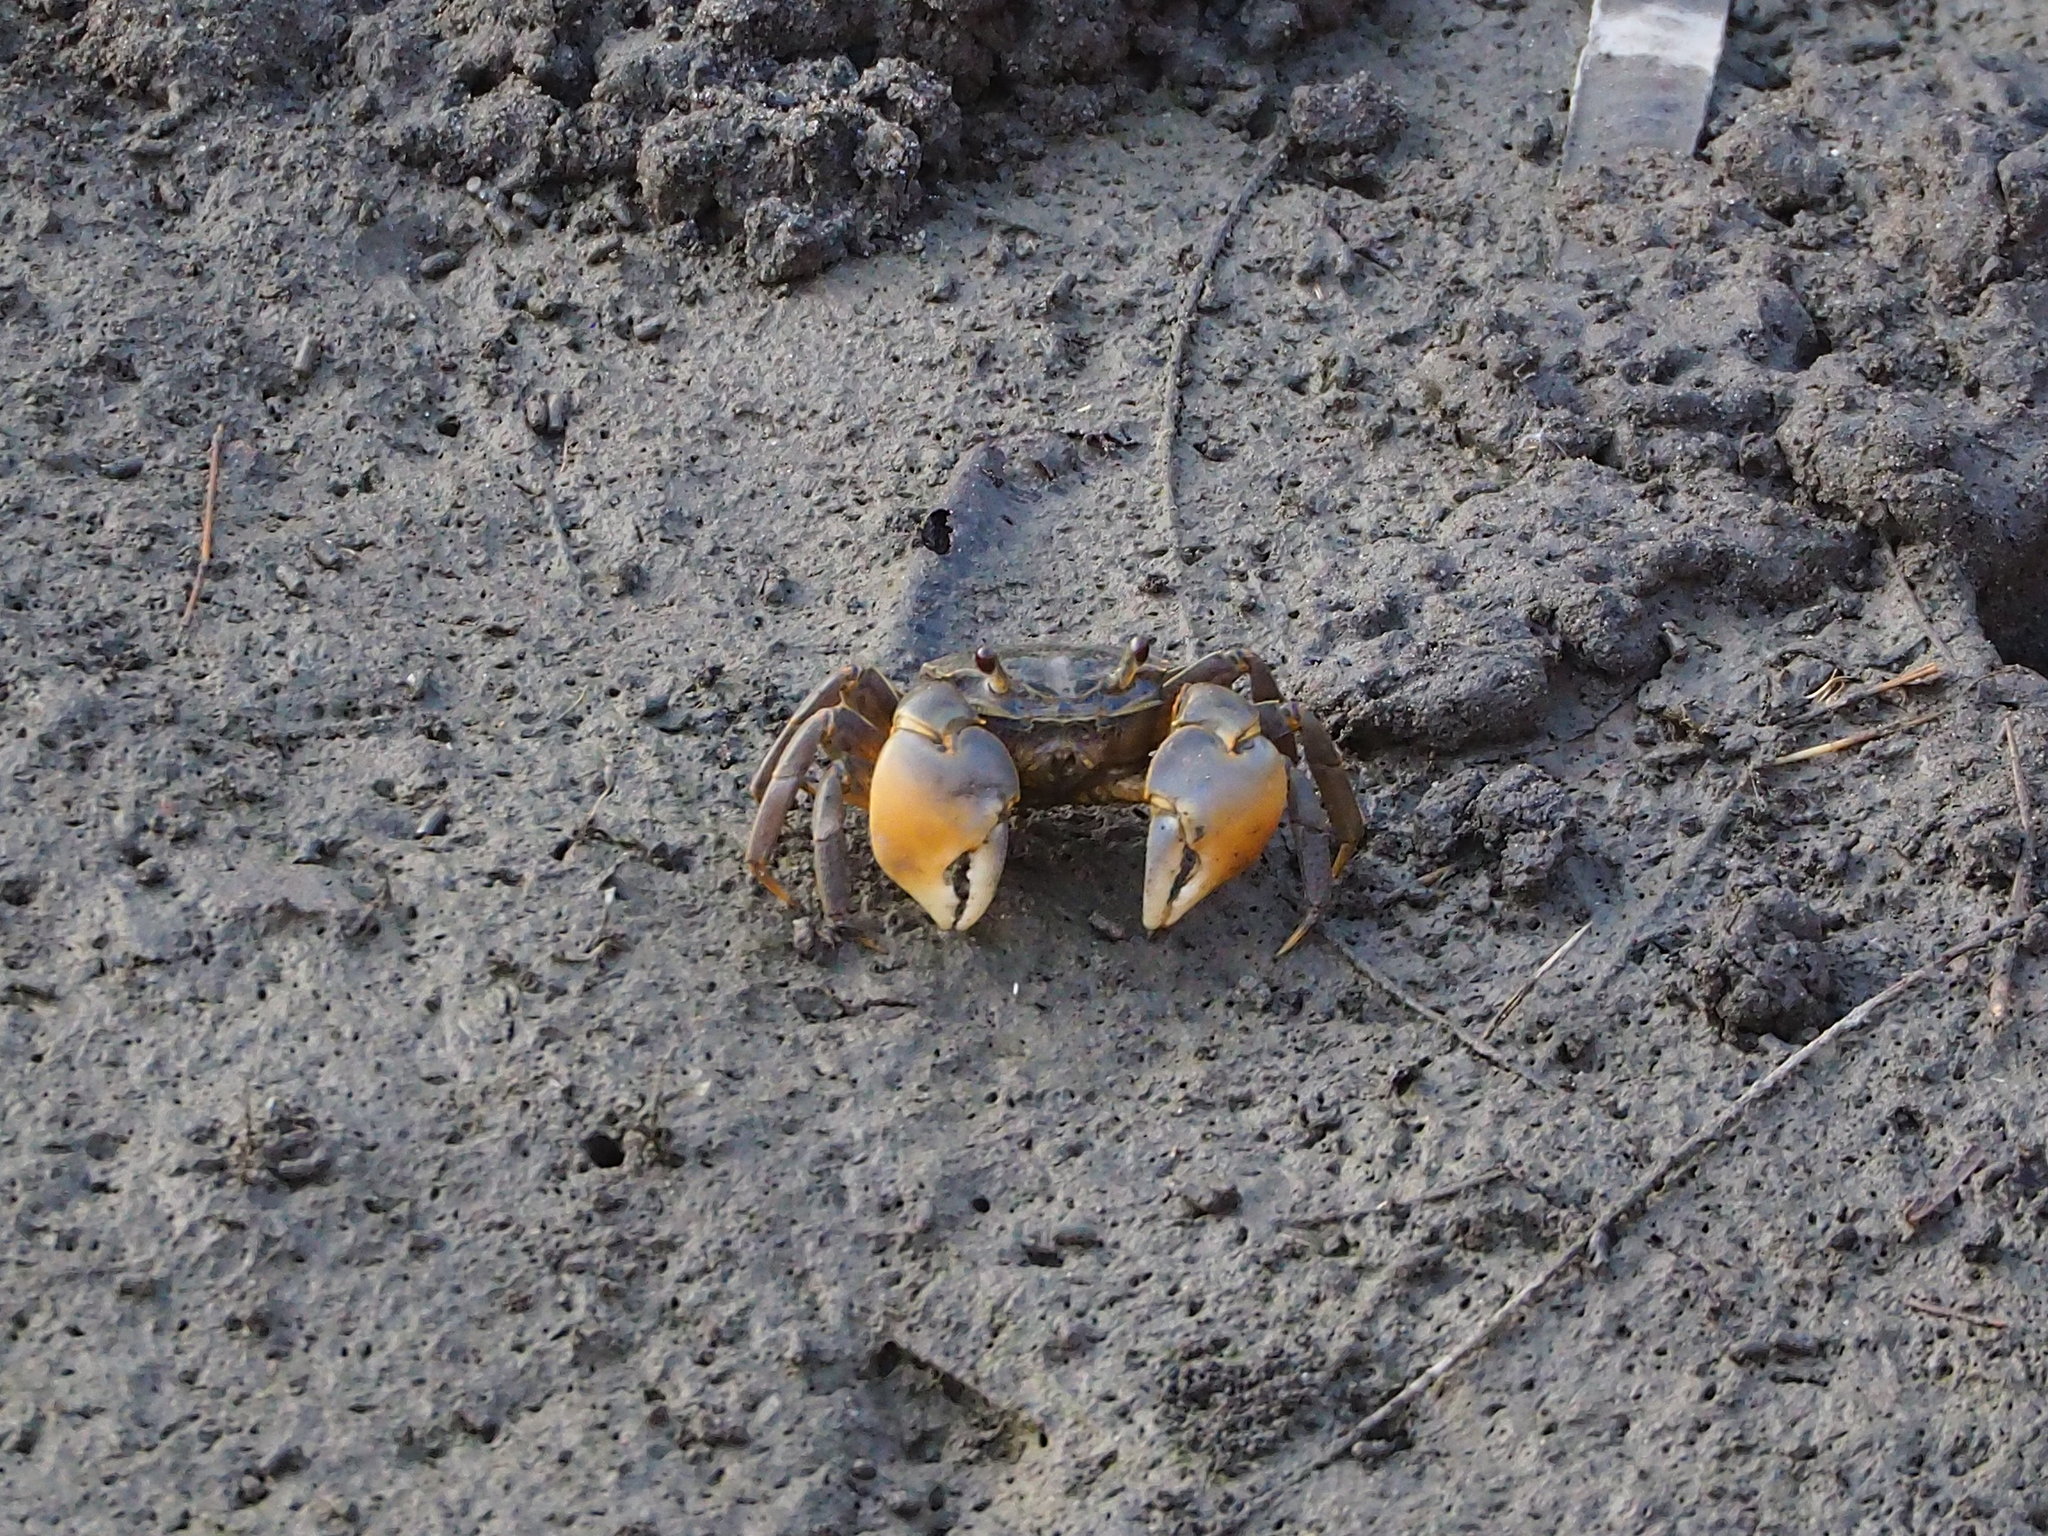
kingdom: Animalia
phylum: Arthropoda
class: Malacostraca
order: Decapoda
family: Varunidae
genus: Helice
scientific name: Helice formosensis
